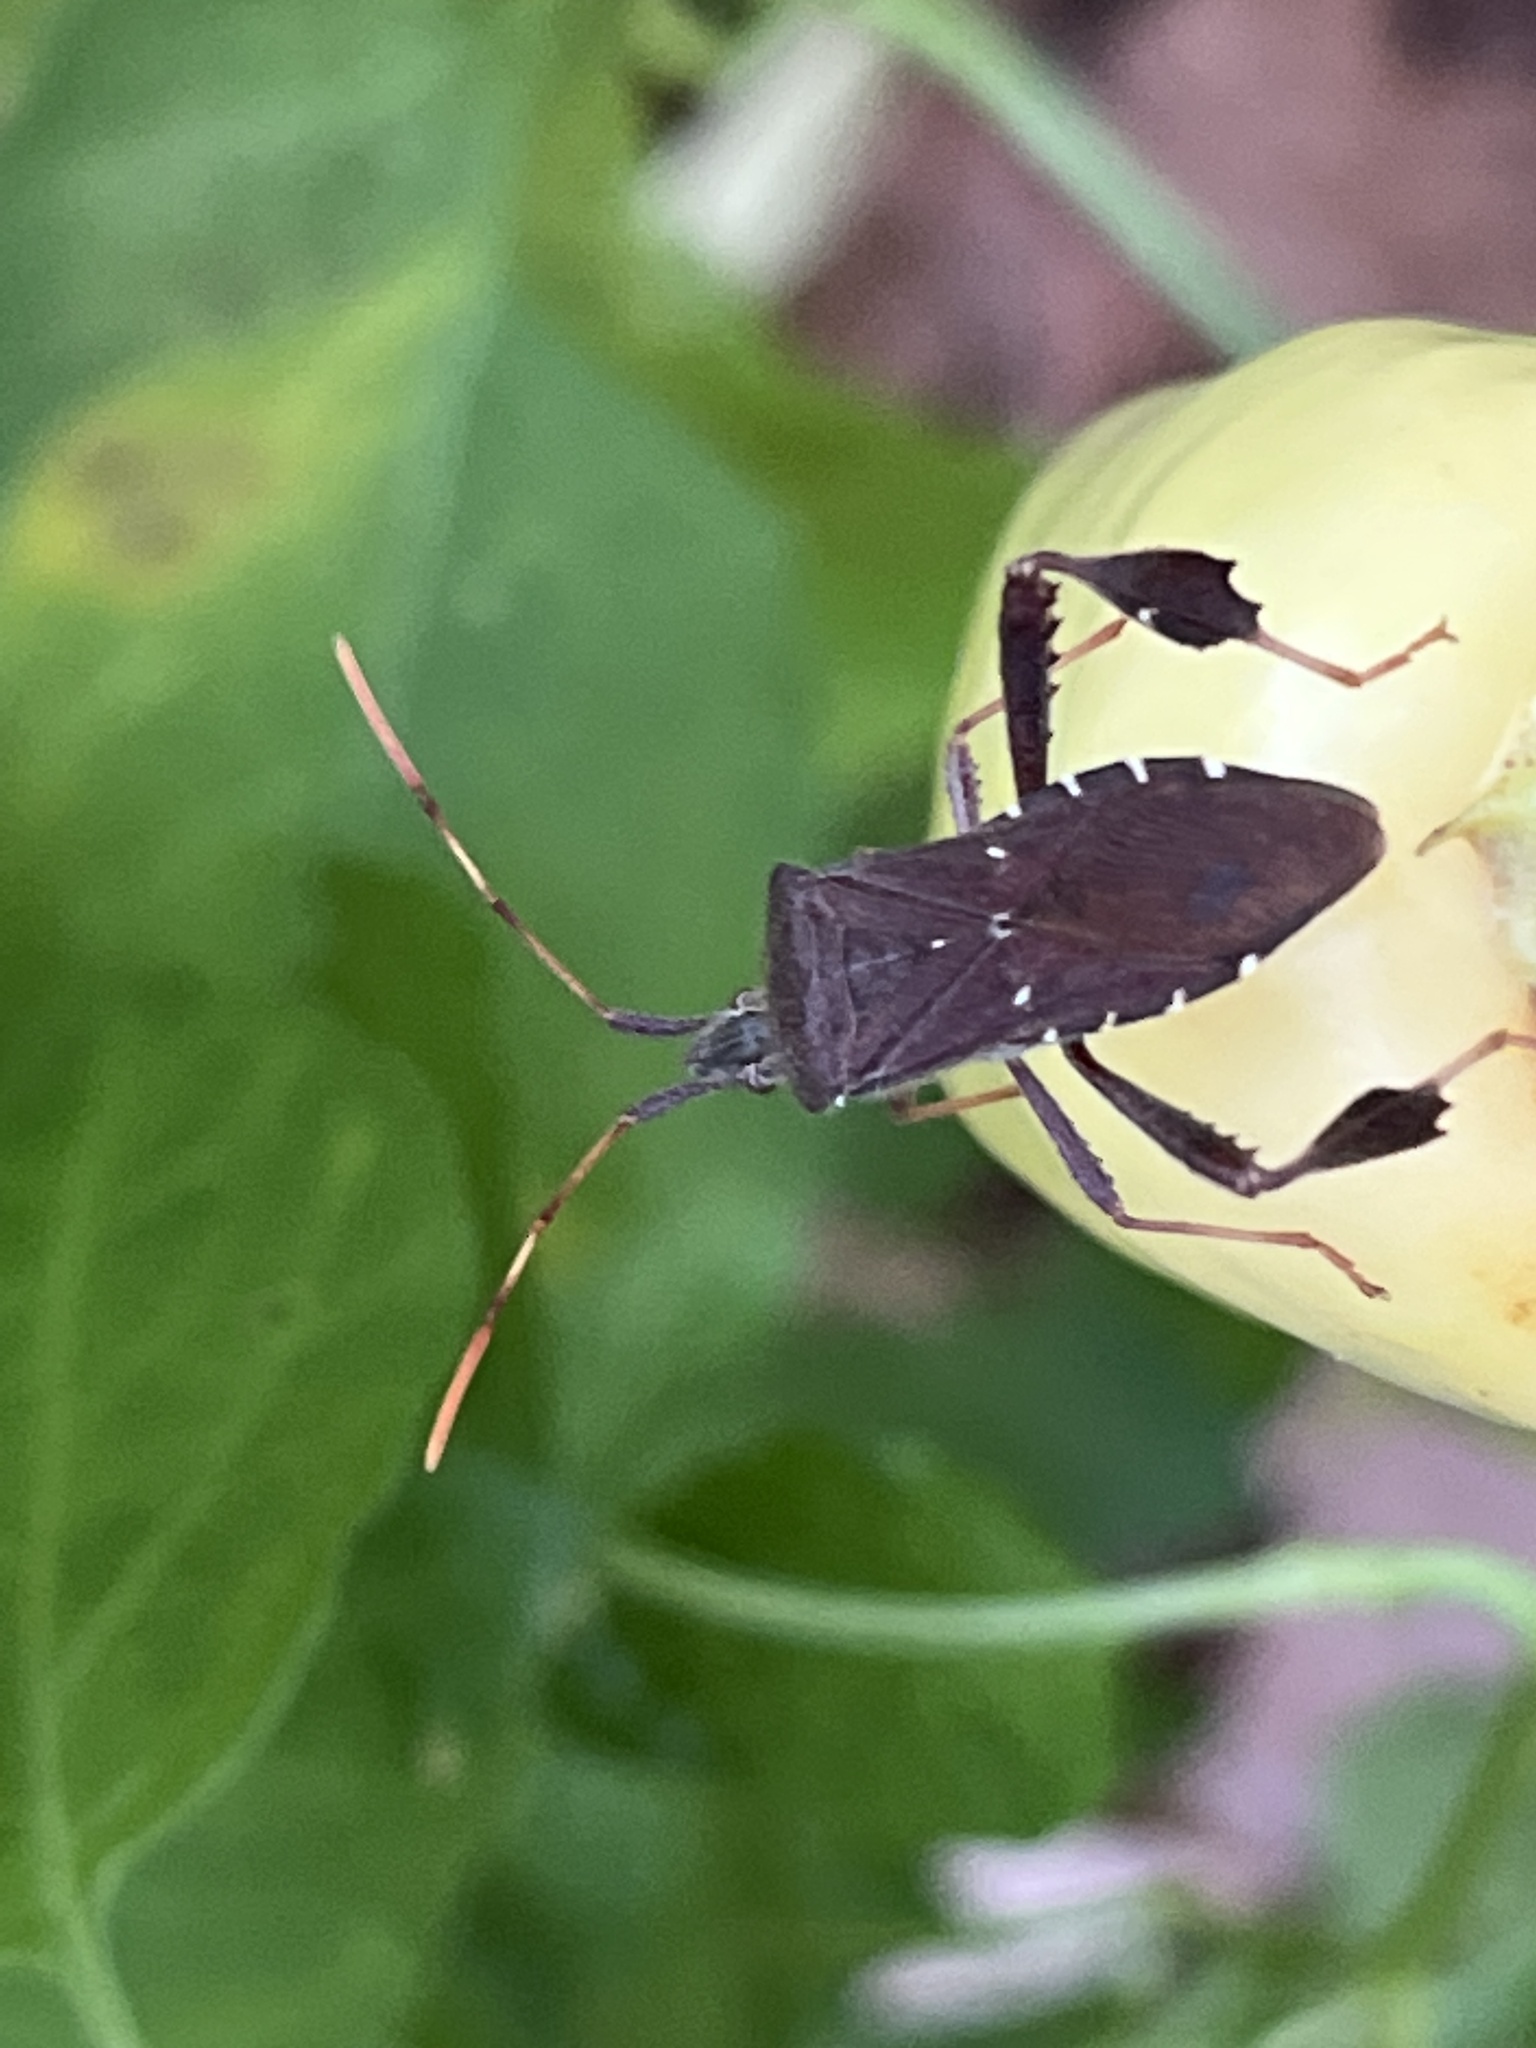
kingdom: Animalia
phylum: Arthropoda
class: Insecta
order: Hemiptera
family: Coreidae
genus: Leptoglossus
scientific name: Leptoglossus oppositus
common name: Northern leaf-footed bug
